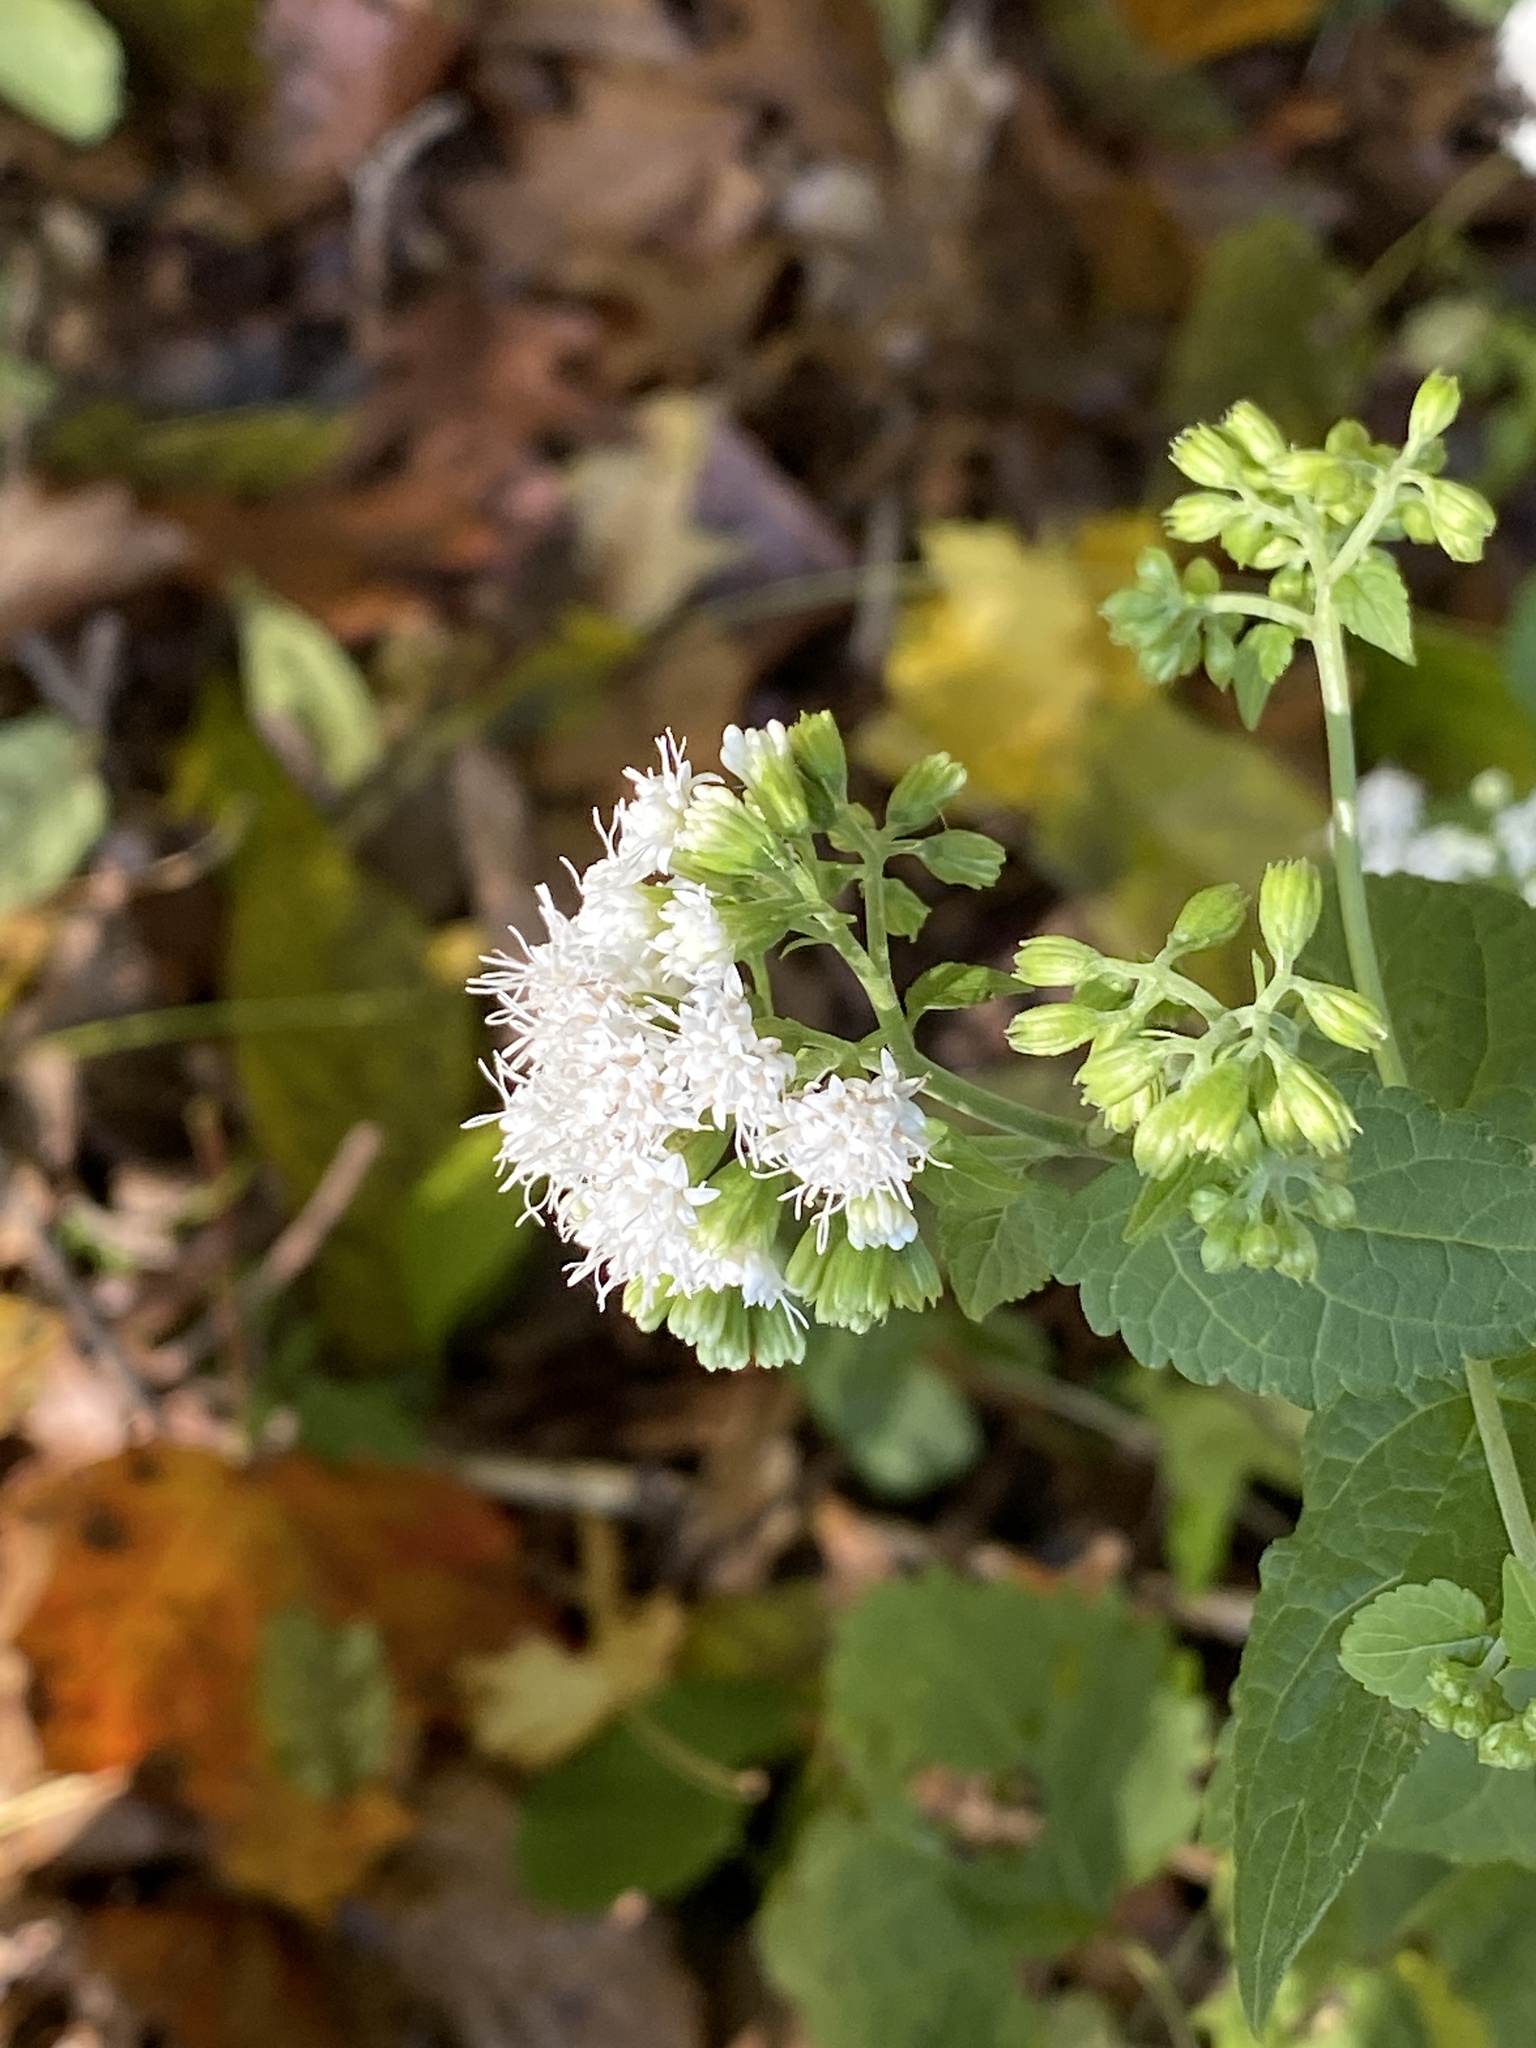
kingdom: Plantae
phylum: Tracheophyta
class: Magnoliopsida
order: Asterales
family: Asteraceae
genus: Ageratina
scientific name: Ageratina altissima
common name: White snakeroot
